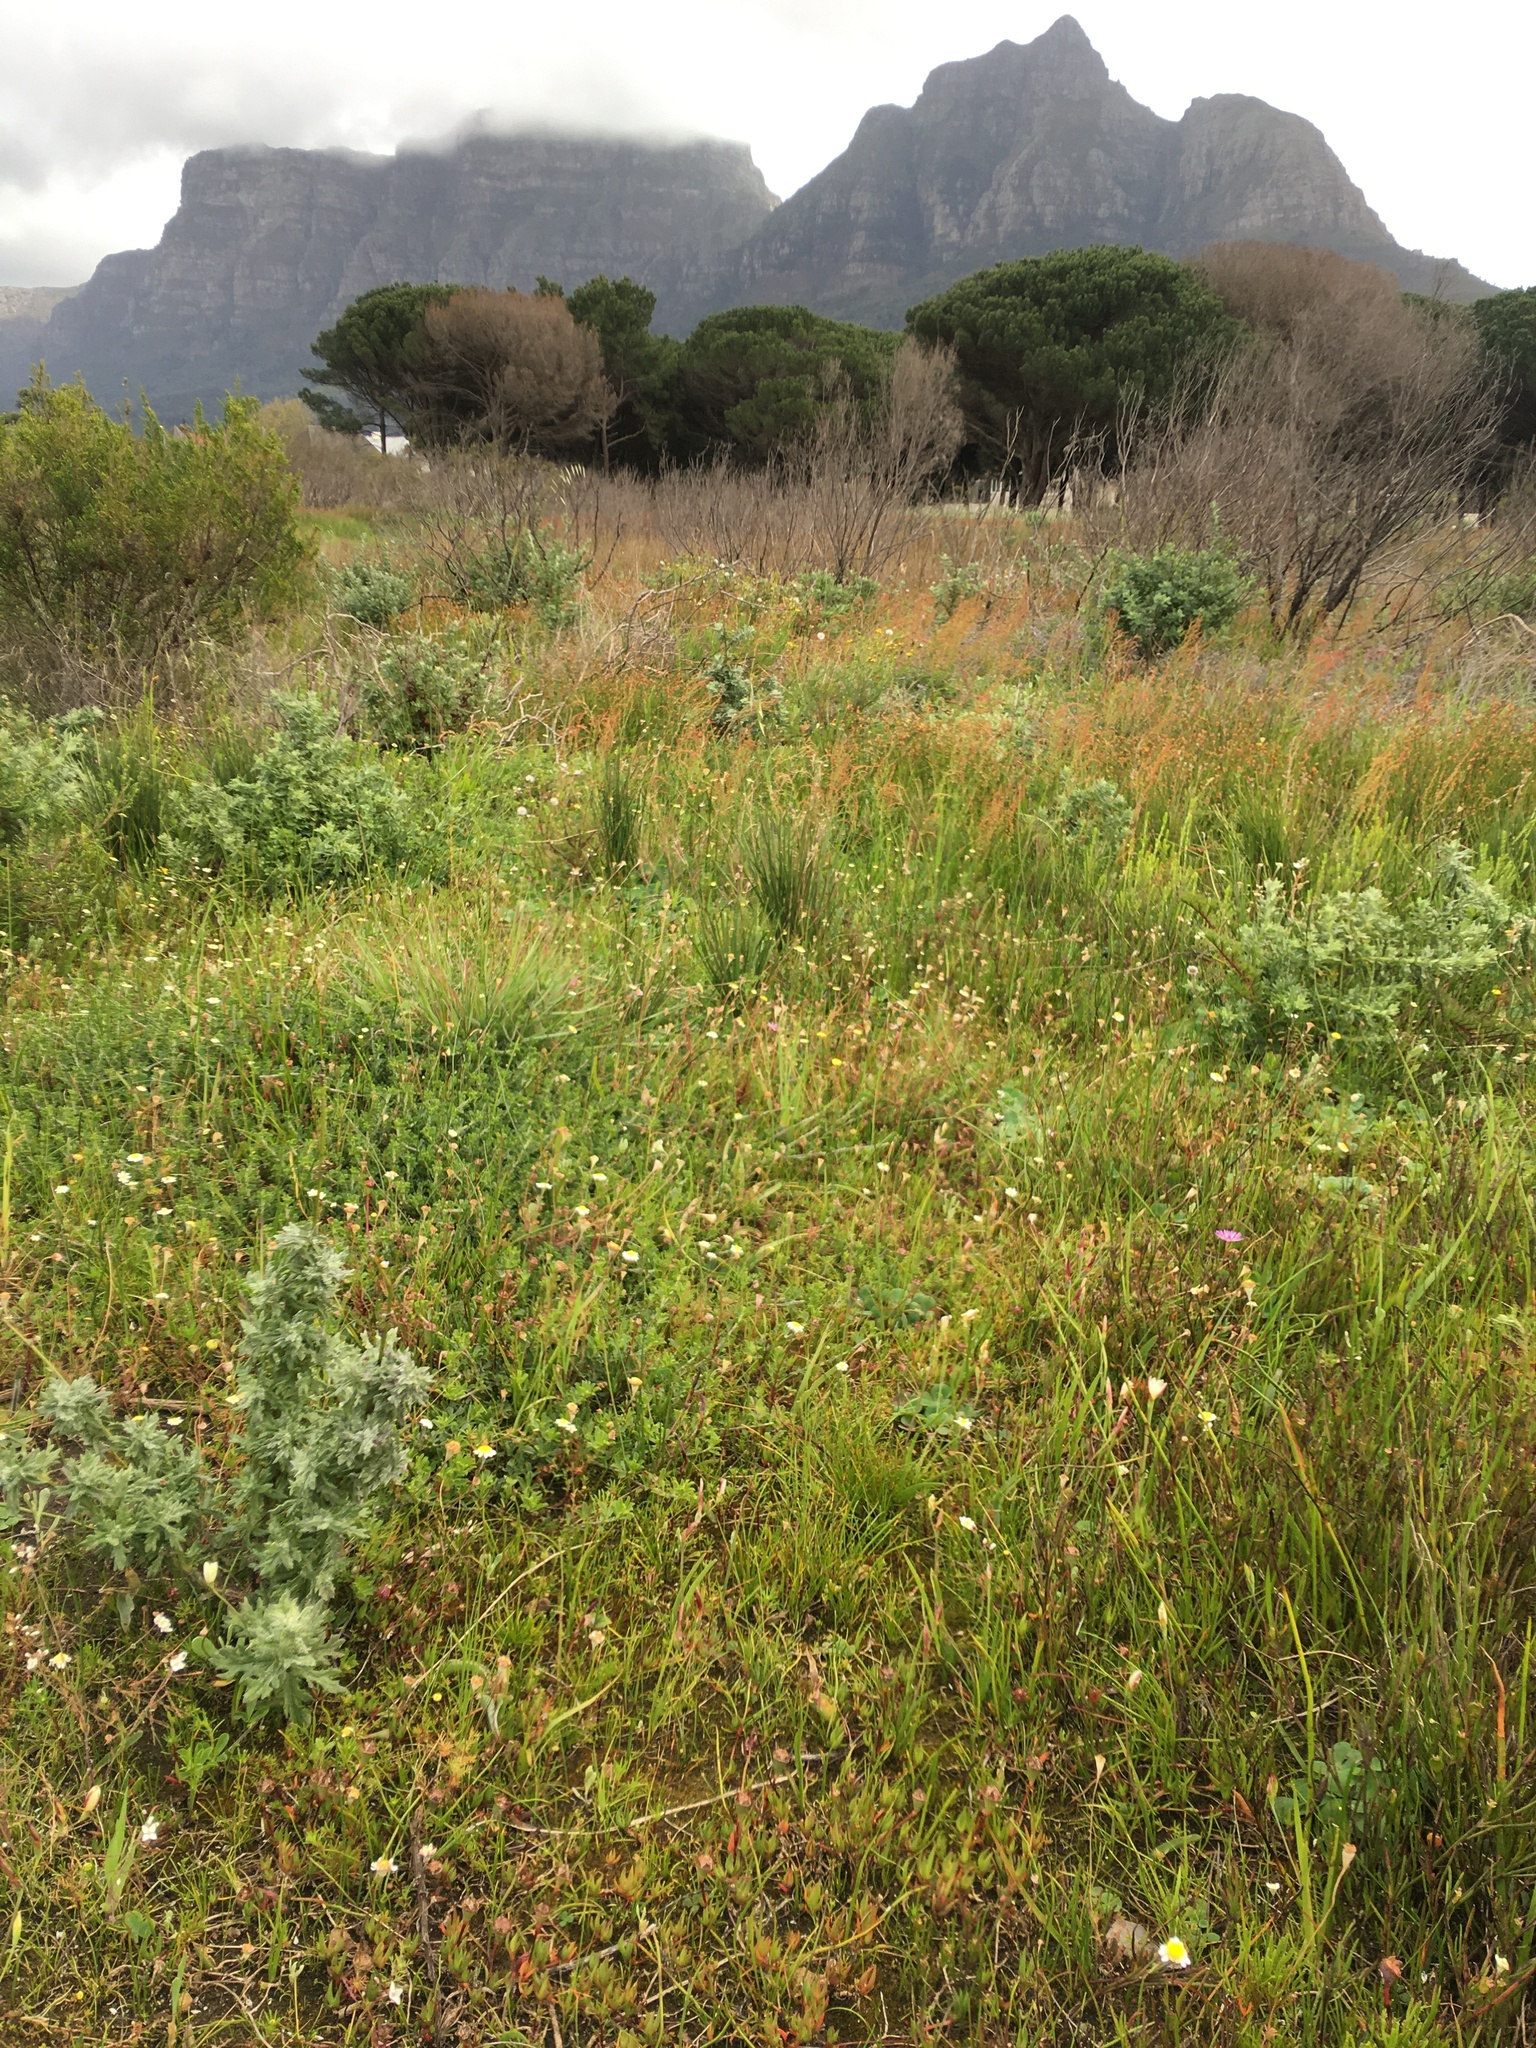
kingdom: Plantae
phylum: Tracheophyta
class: Magnoliopsida
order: Brassicales
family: Brassicaceae
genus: Heliophila
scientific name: Heliophila pusilla
